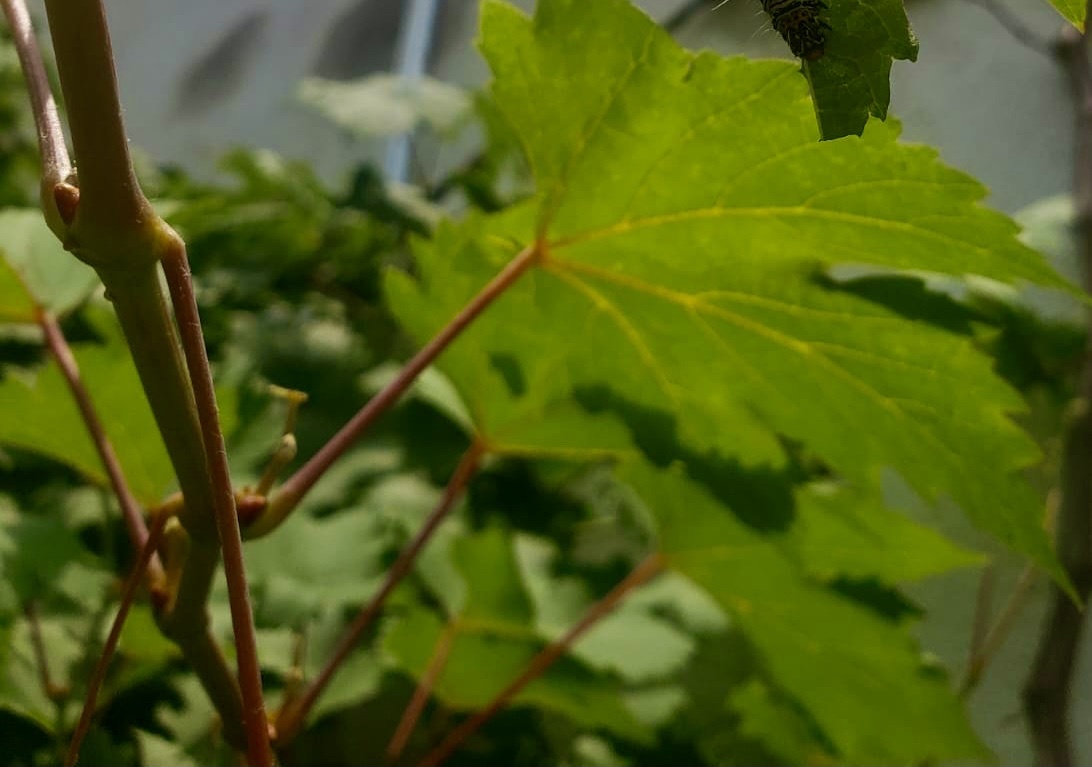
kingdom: Animalia
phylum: Arthropoda
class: Insecta
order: Lepidoptera
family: Noctuidae
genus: Alypia
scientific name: Alypia disparata
